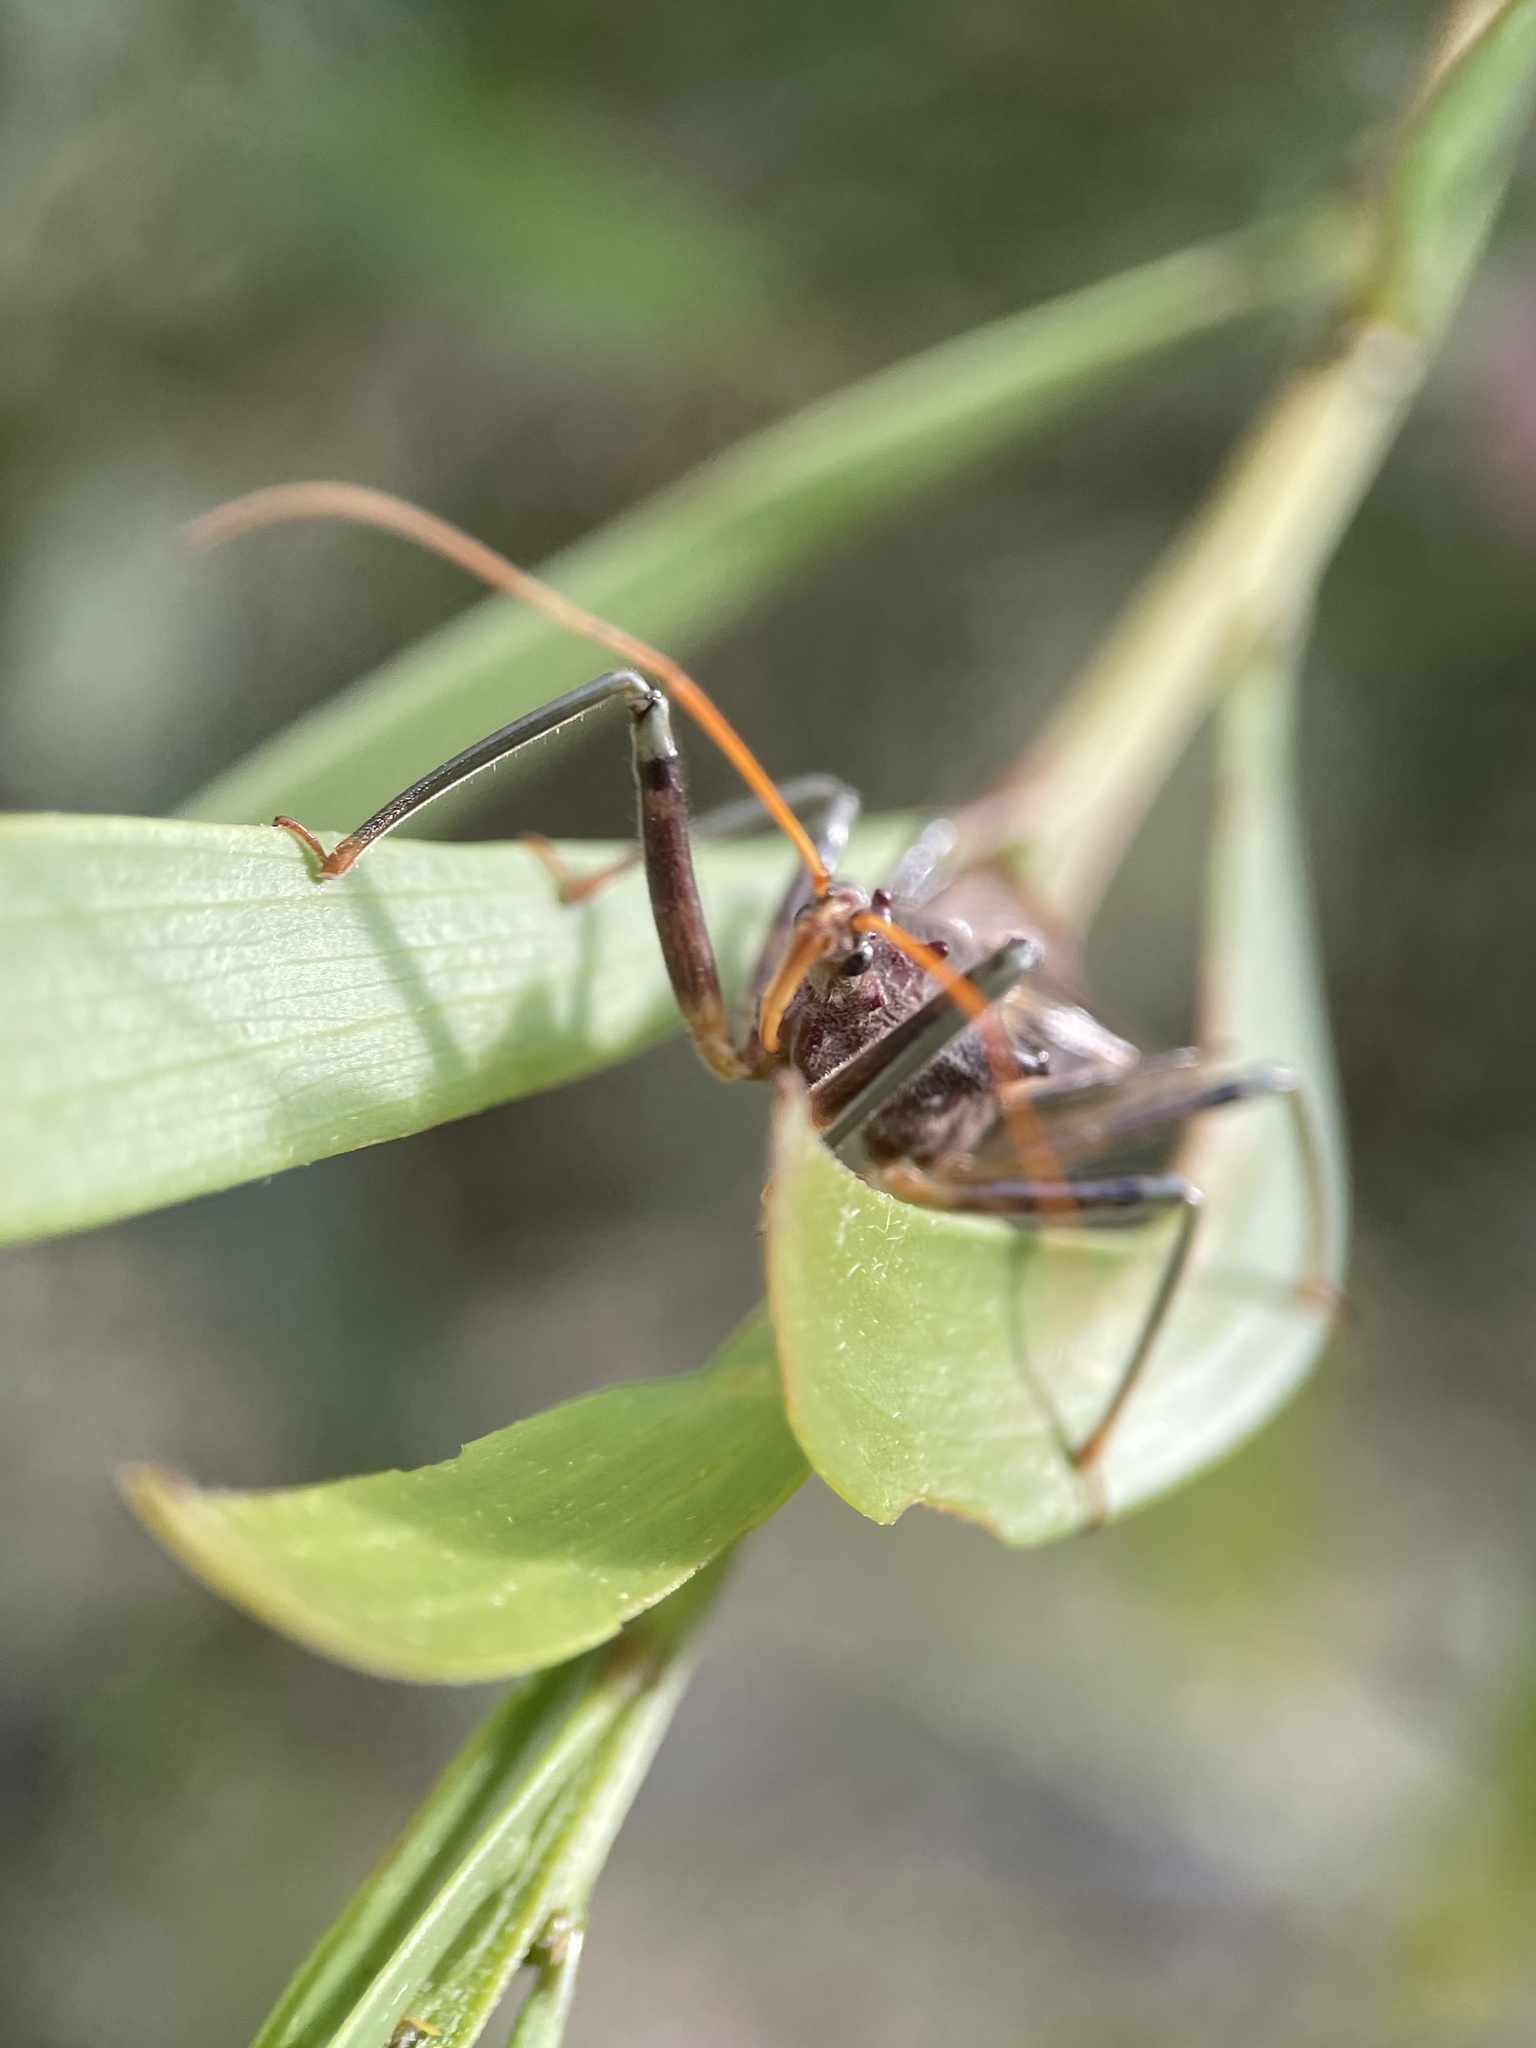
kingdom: Animalia
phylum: Arthropoda
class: Insecta
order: Hemiptera
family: Reduviidae
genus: Pristhesancus
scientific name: Pristhesancus plagipennis
